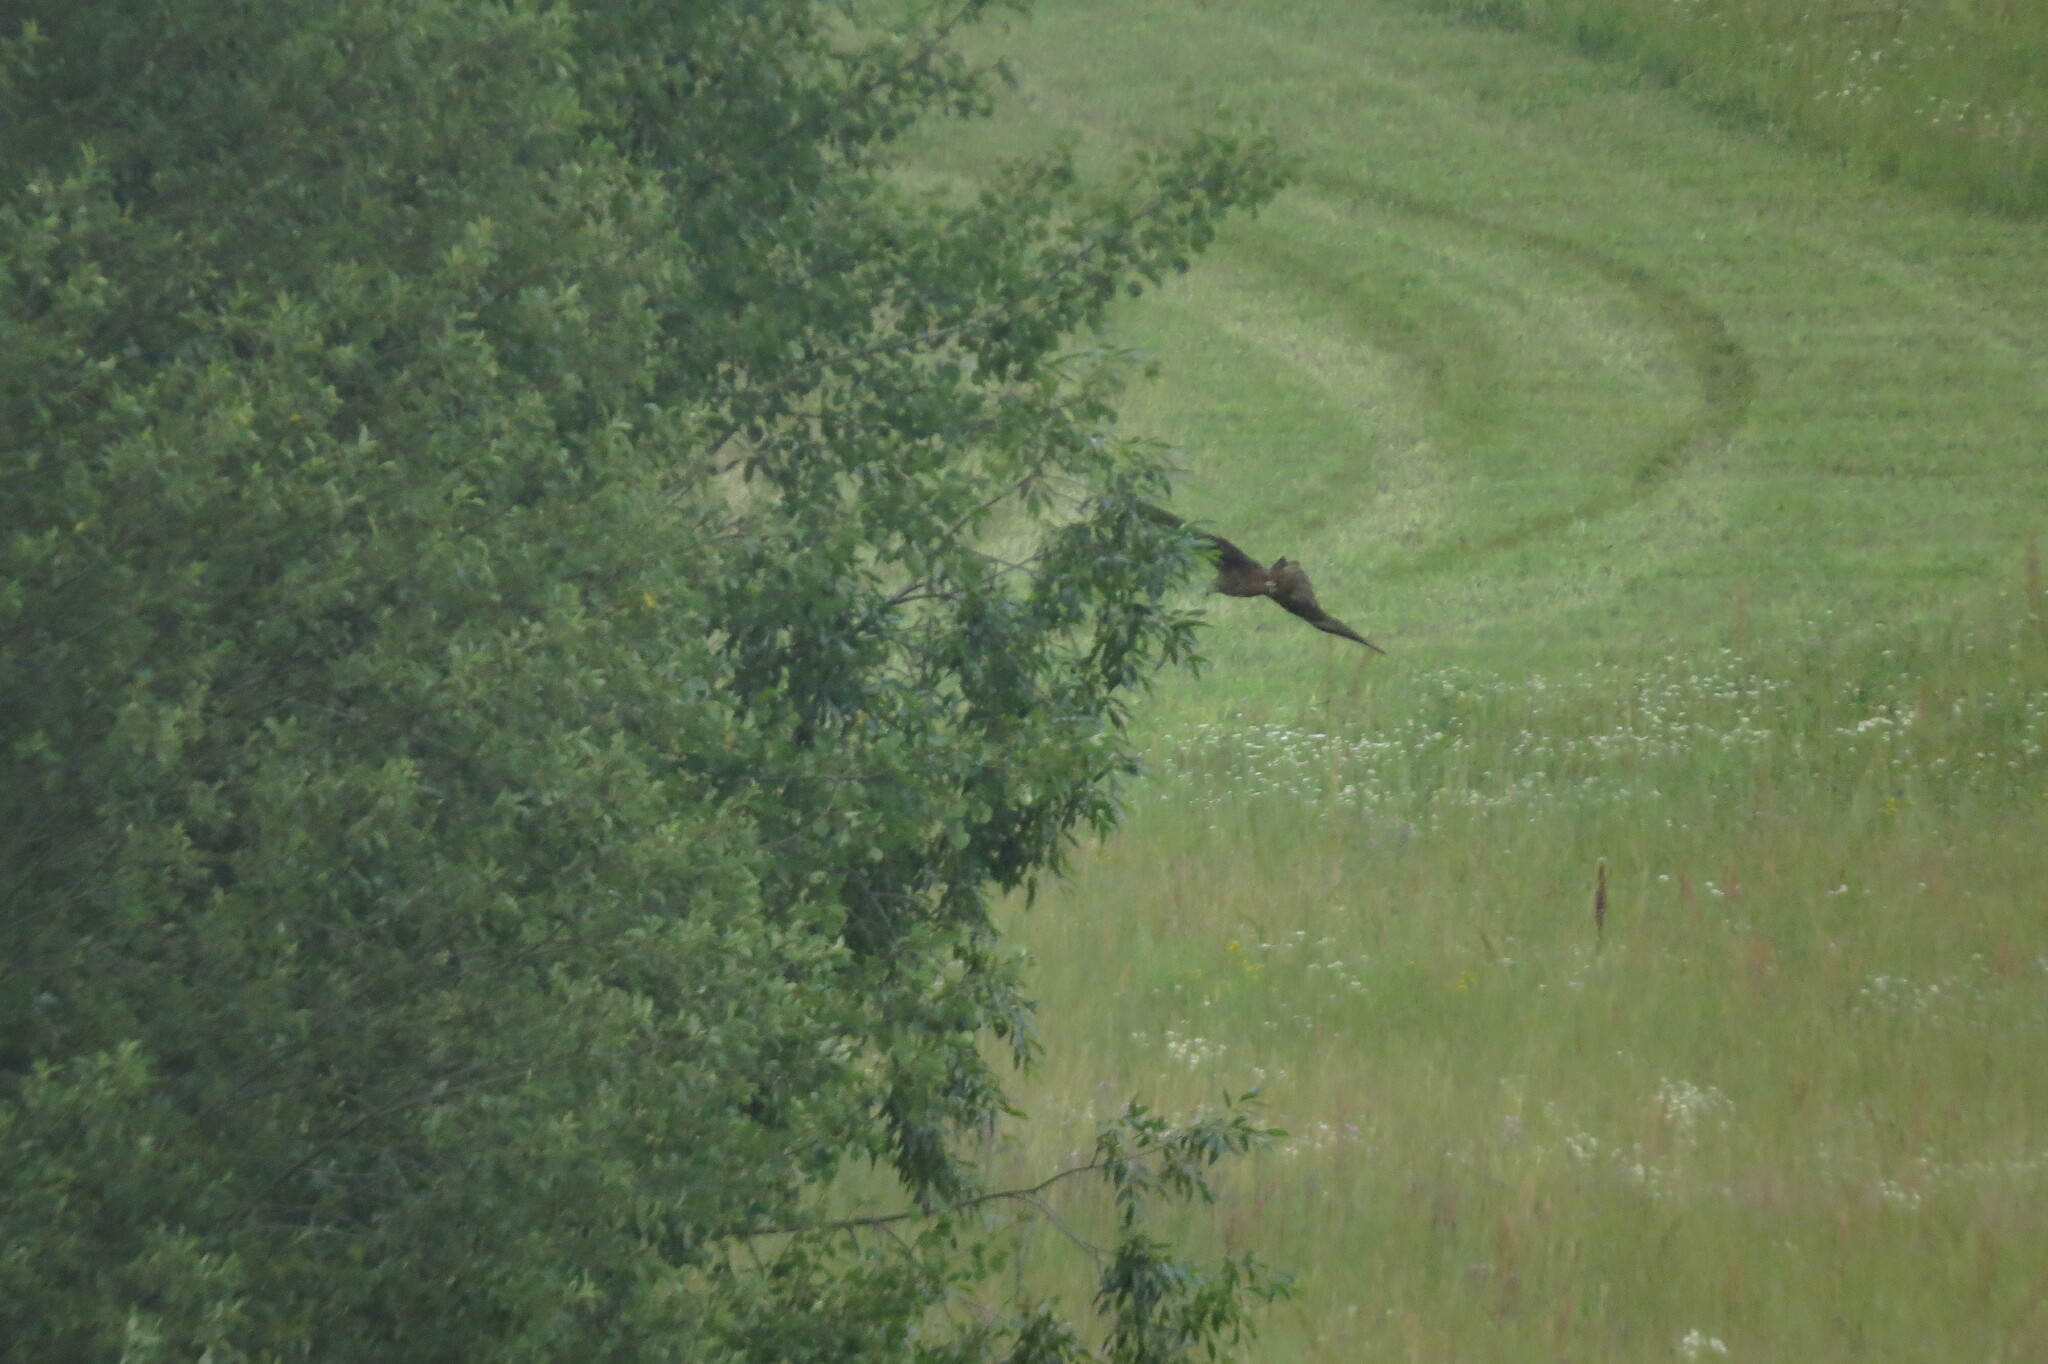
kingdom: Animalia
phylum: Chordata
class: Aves
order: Accipitriformes
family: Accipitridae
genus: Milvus
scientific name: Milvus migrans
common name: Black kite
